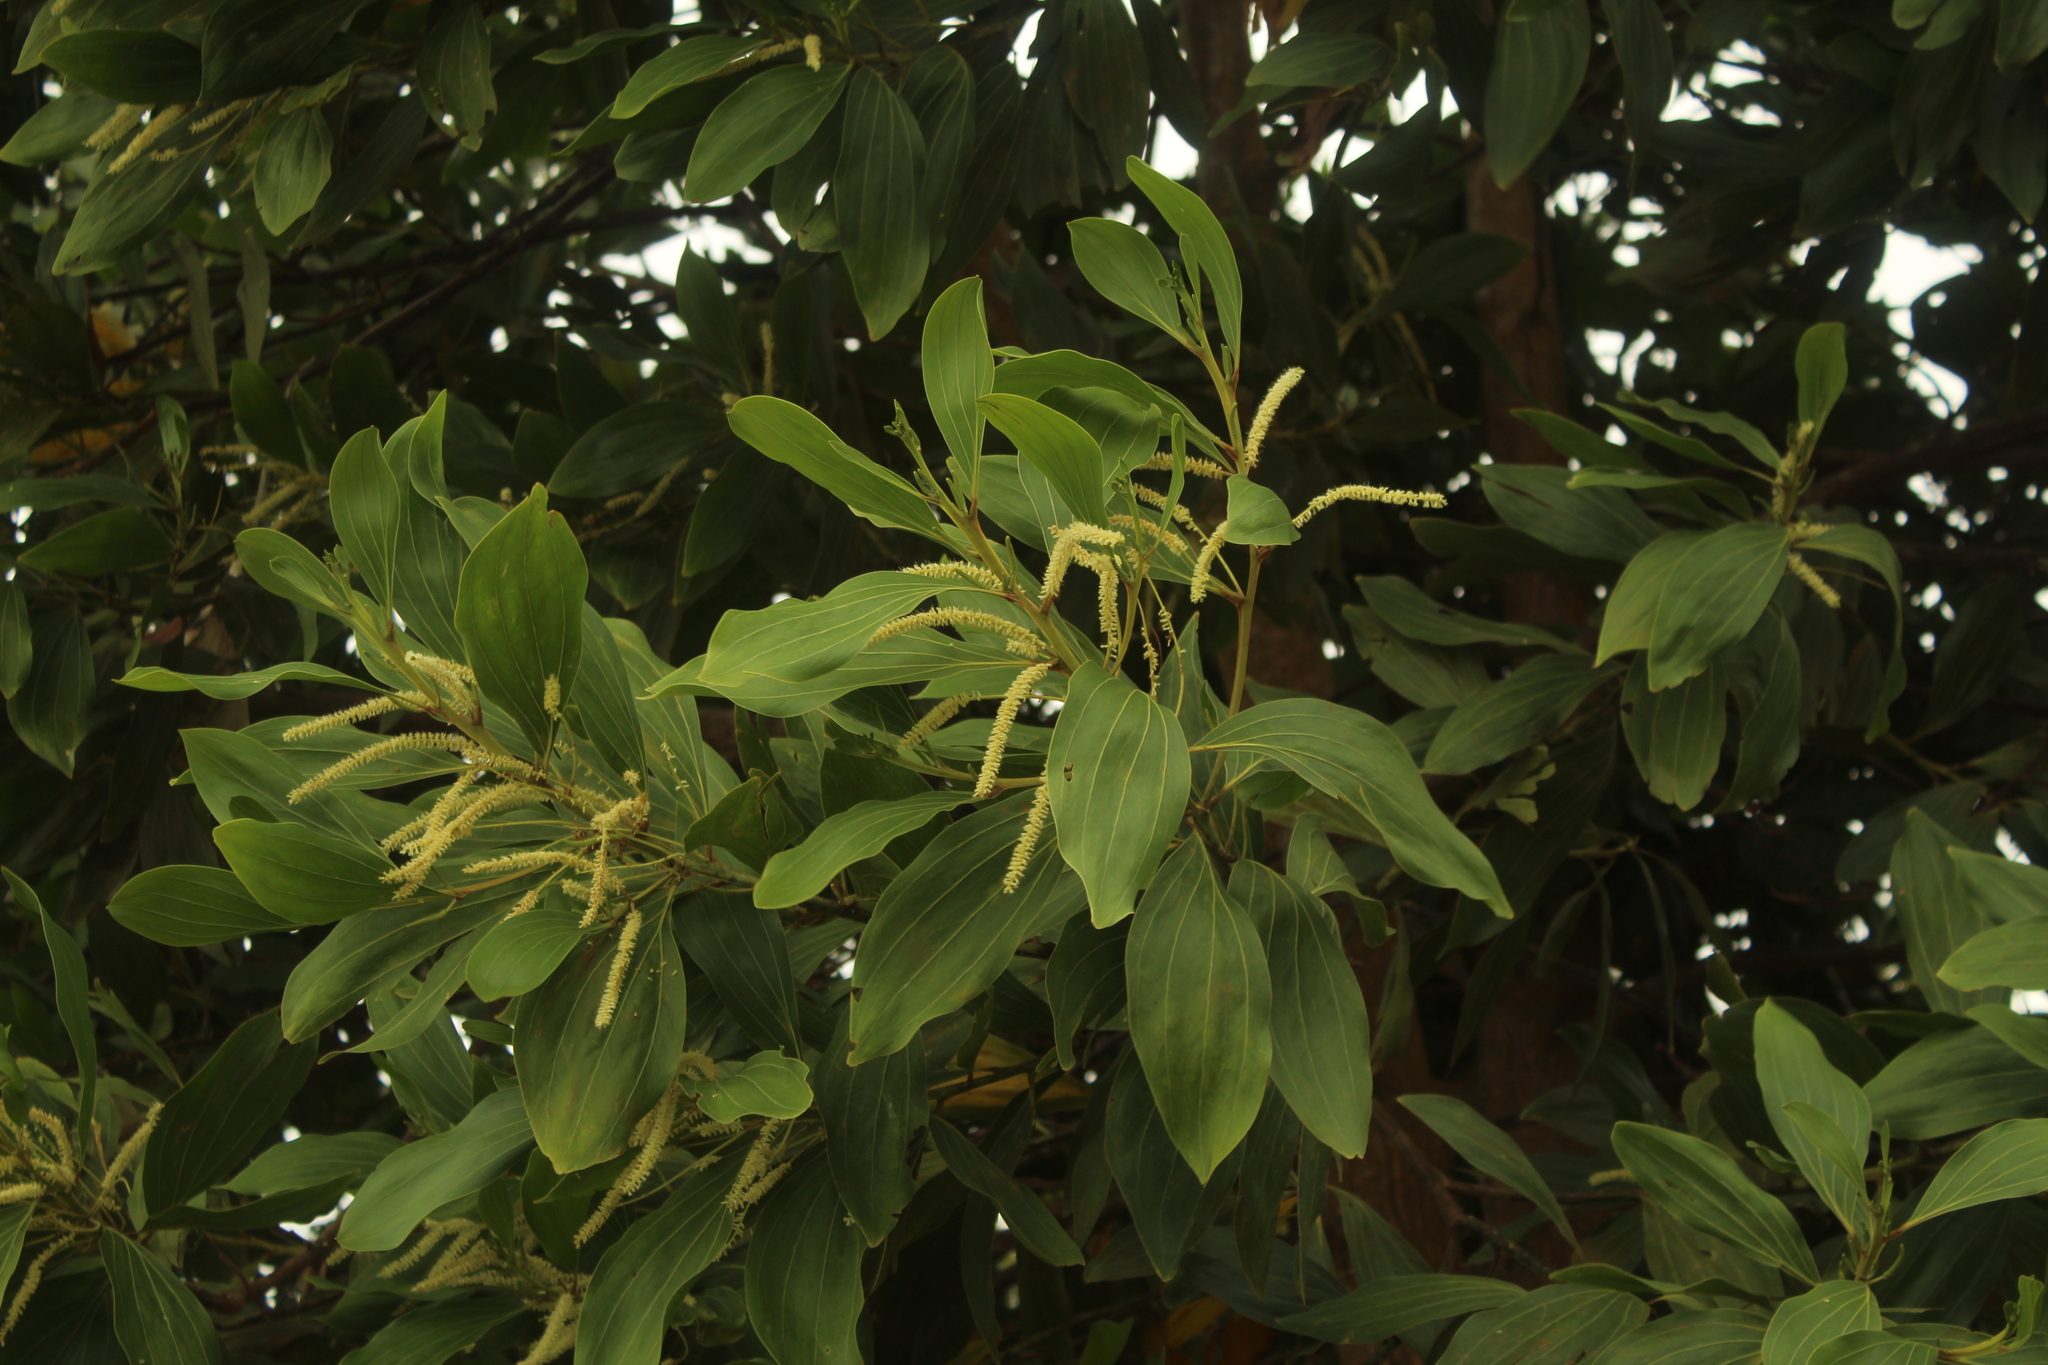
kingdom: Plantae
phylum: Tracheophyta
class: Magnoliopsida
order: Fabales
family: Fabaceae
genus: Acacia
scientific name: Acacia mangium
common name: Black wattle
